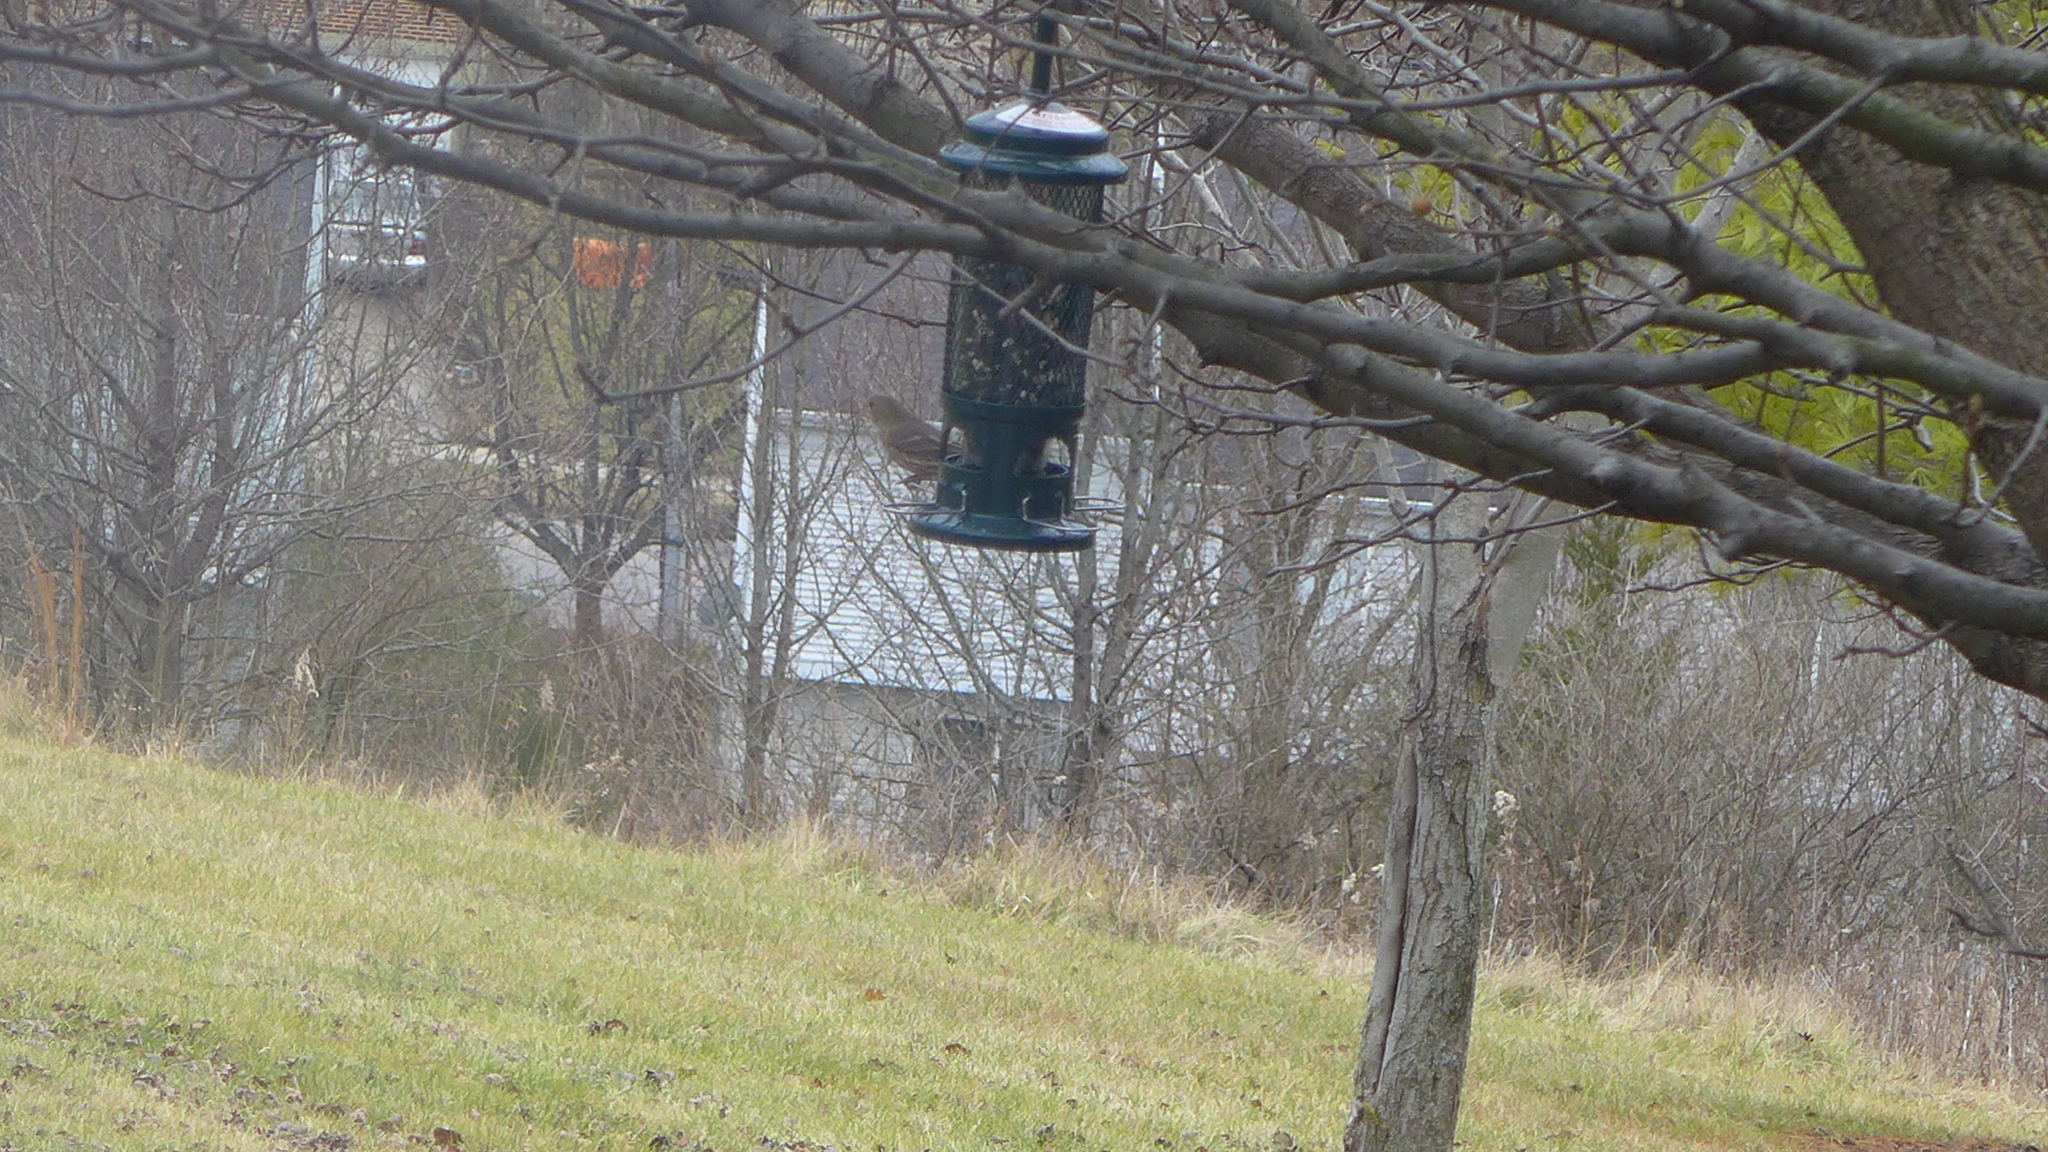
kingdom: Animalia
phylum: Chordata
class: Aves
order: Passeriformes
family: Fringillidae
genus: Haemorhous
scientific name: Haemorhous mexicanus
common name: House finch
